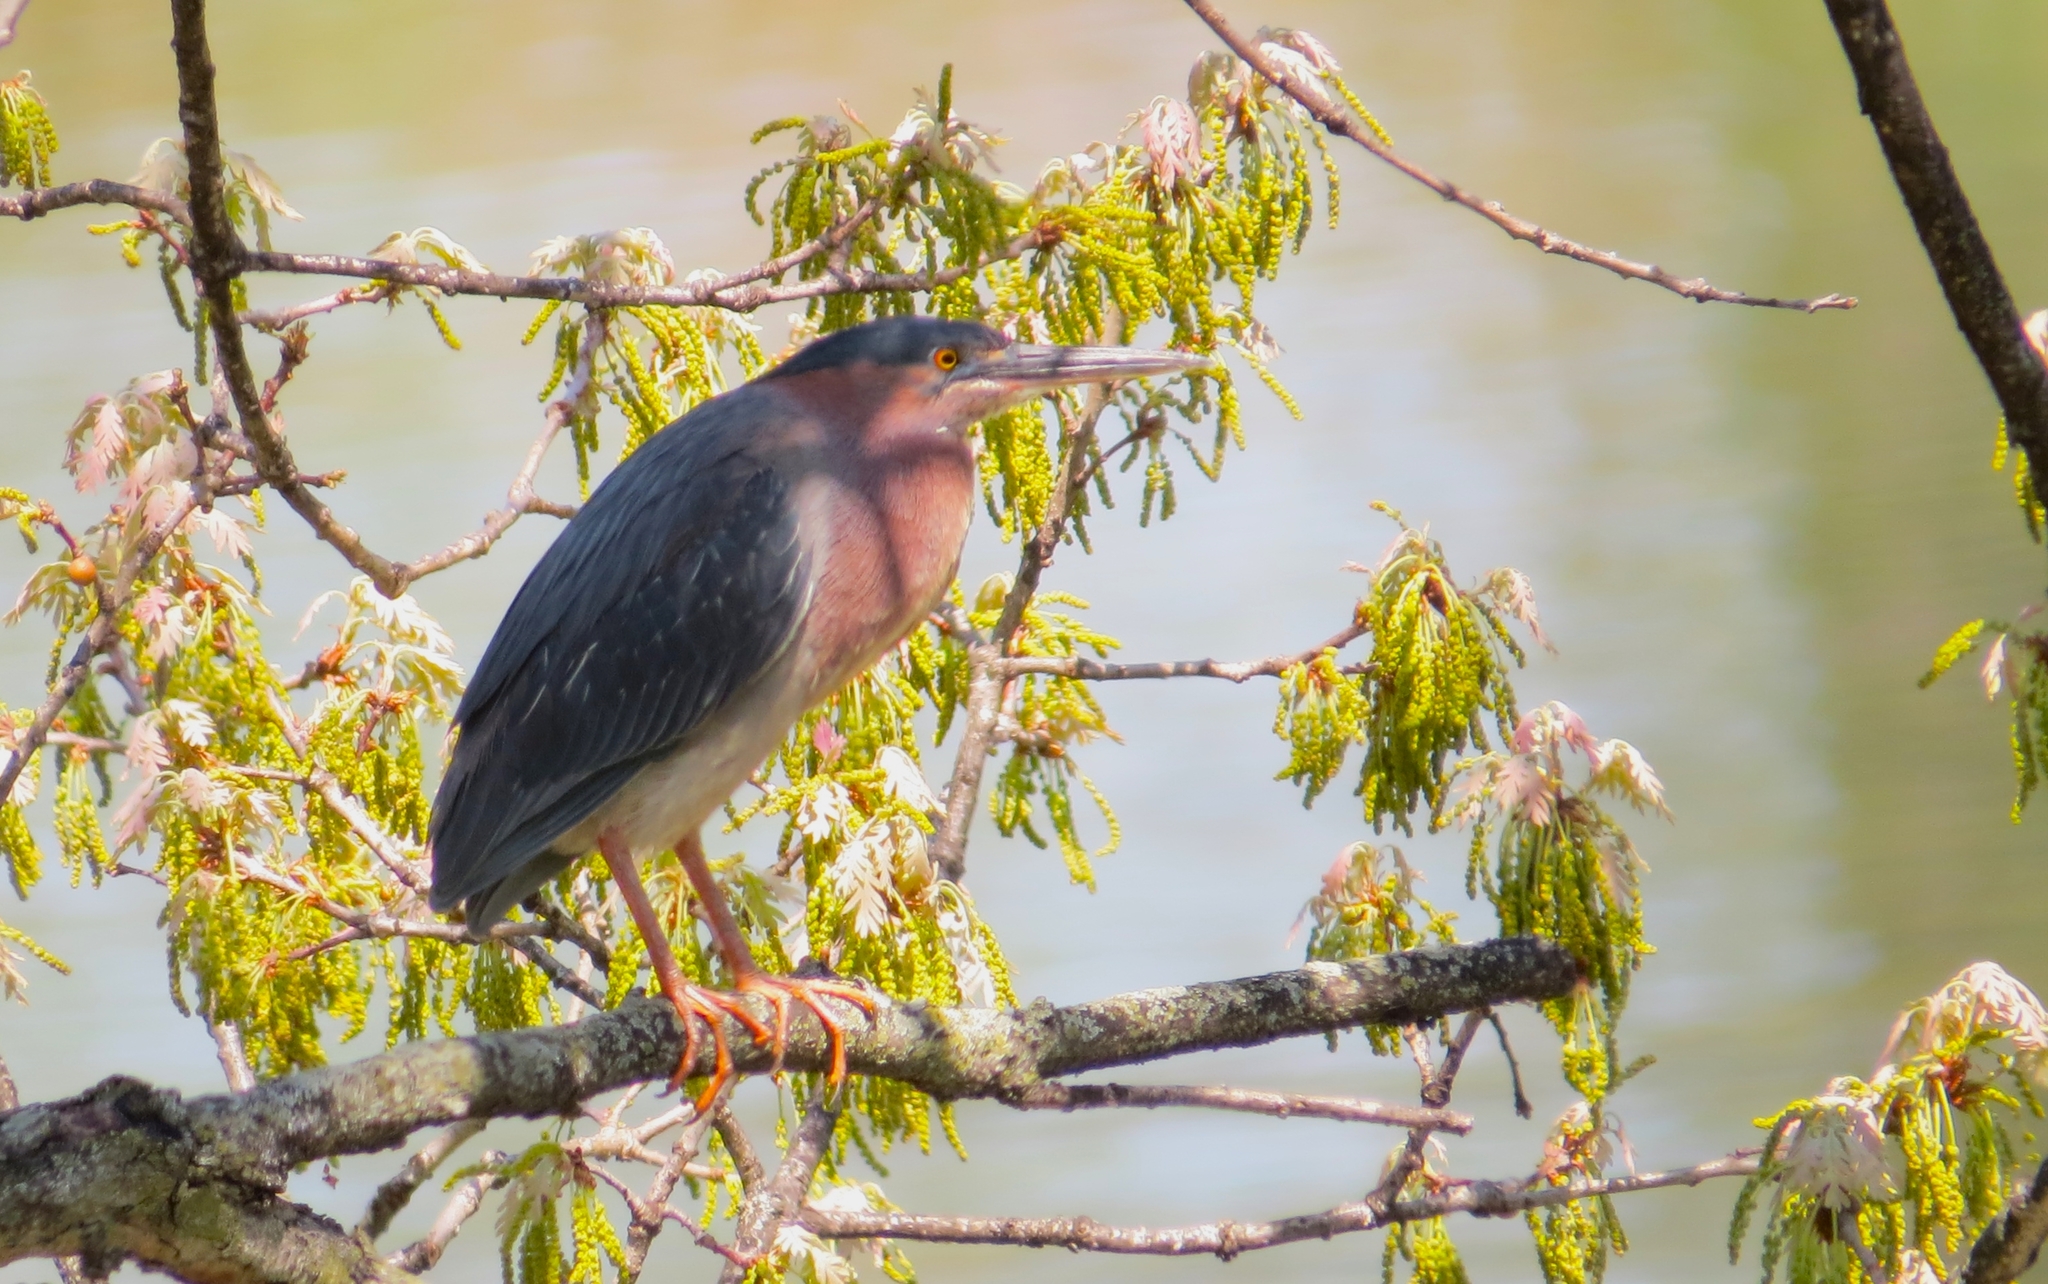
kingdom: Animalia
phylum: Chordata
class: Aves
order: Pelecaniformes
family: Ardeidae
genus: Butorides
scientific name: Butorides virescens
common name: Green heron
